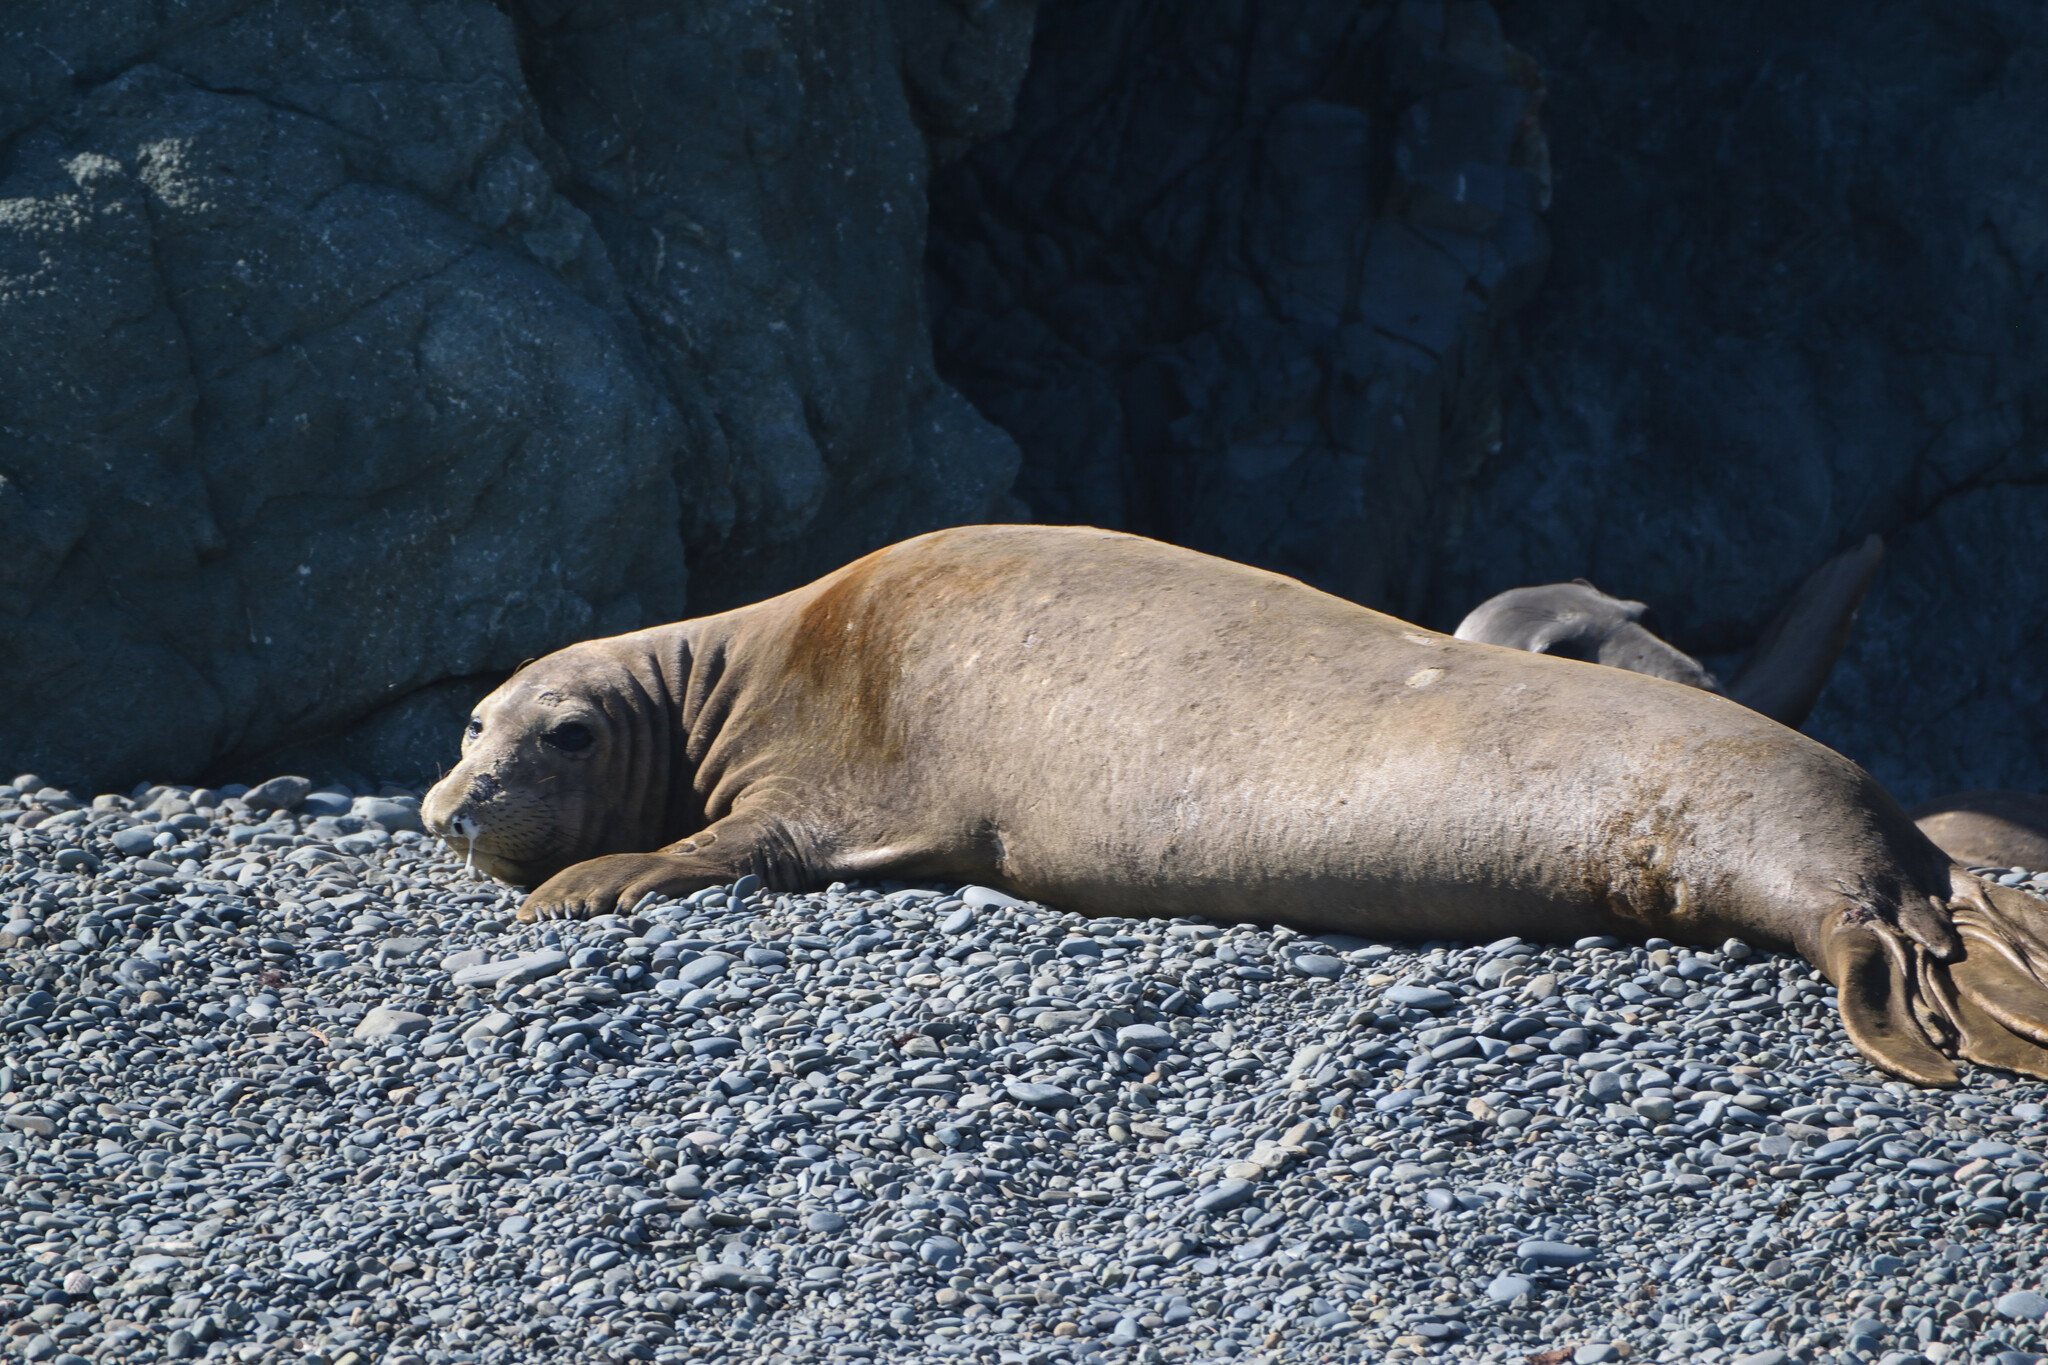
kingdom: Animalia
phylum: Chordata
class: Mammalia
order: Carnivora
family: Phocidae
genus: Mirounga
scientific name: Mirounga angustirostris
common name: Northern elephant seal
